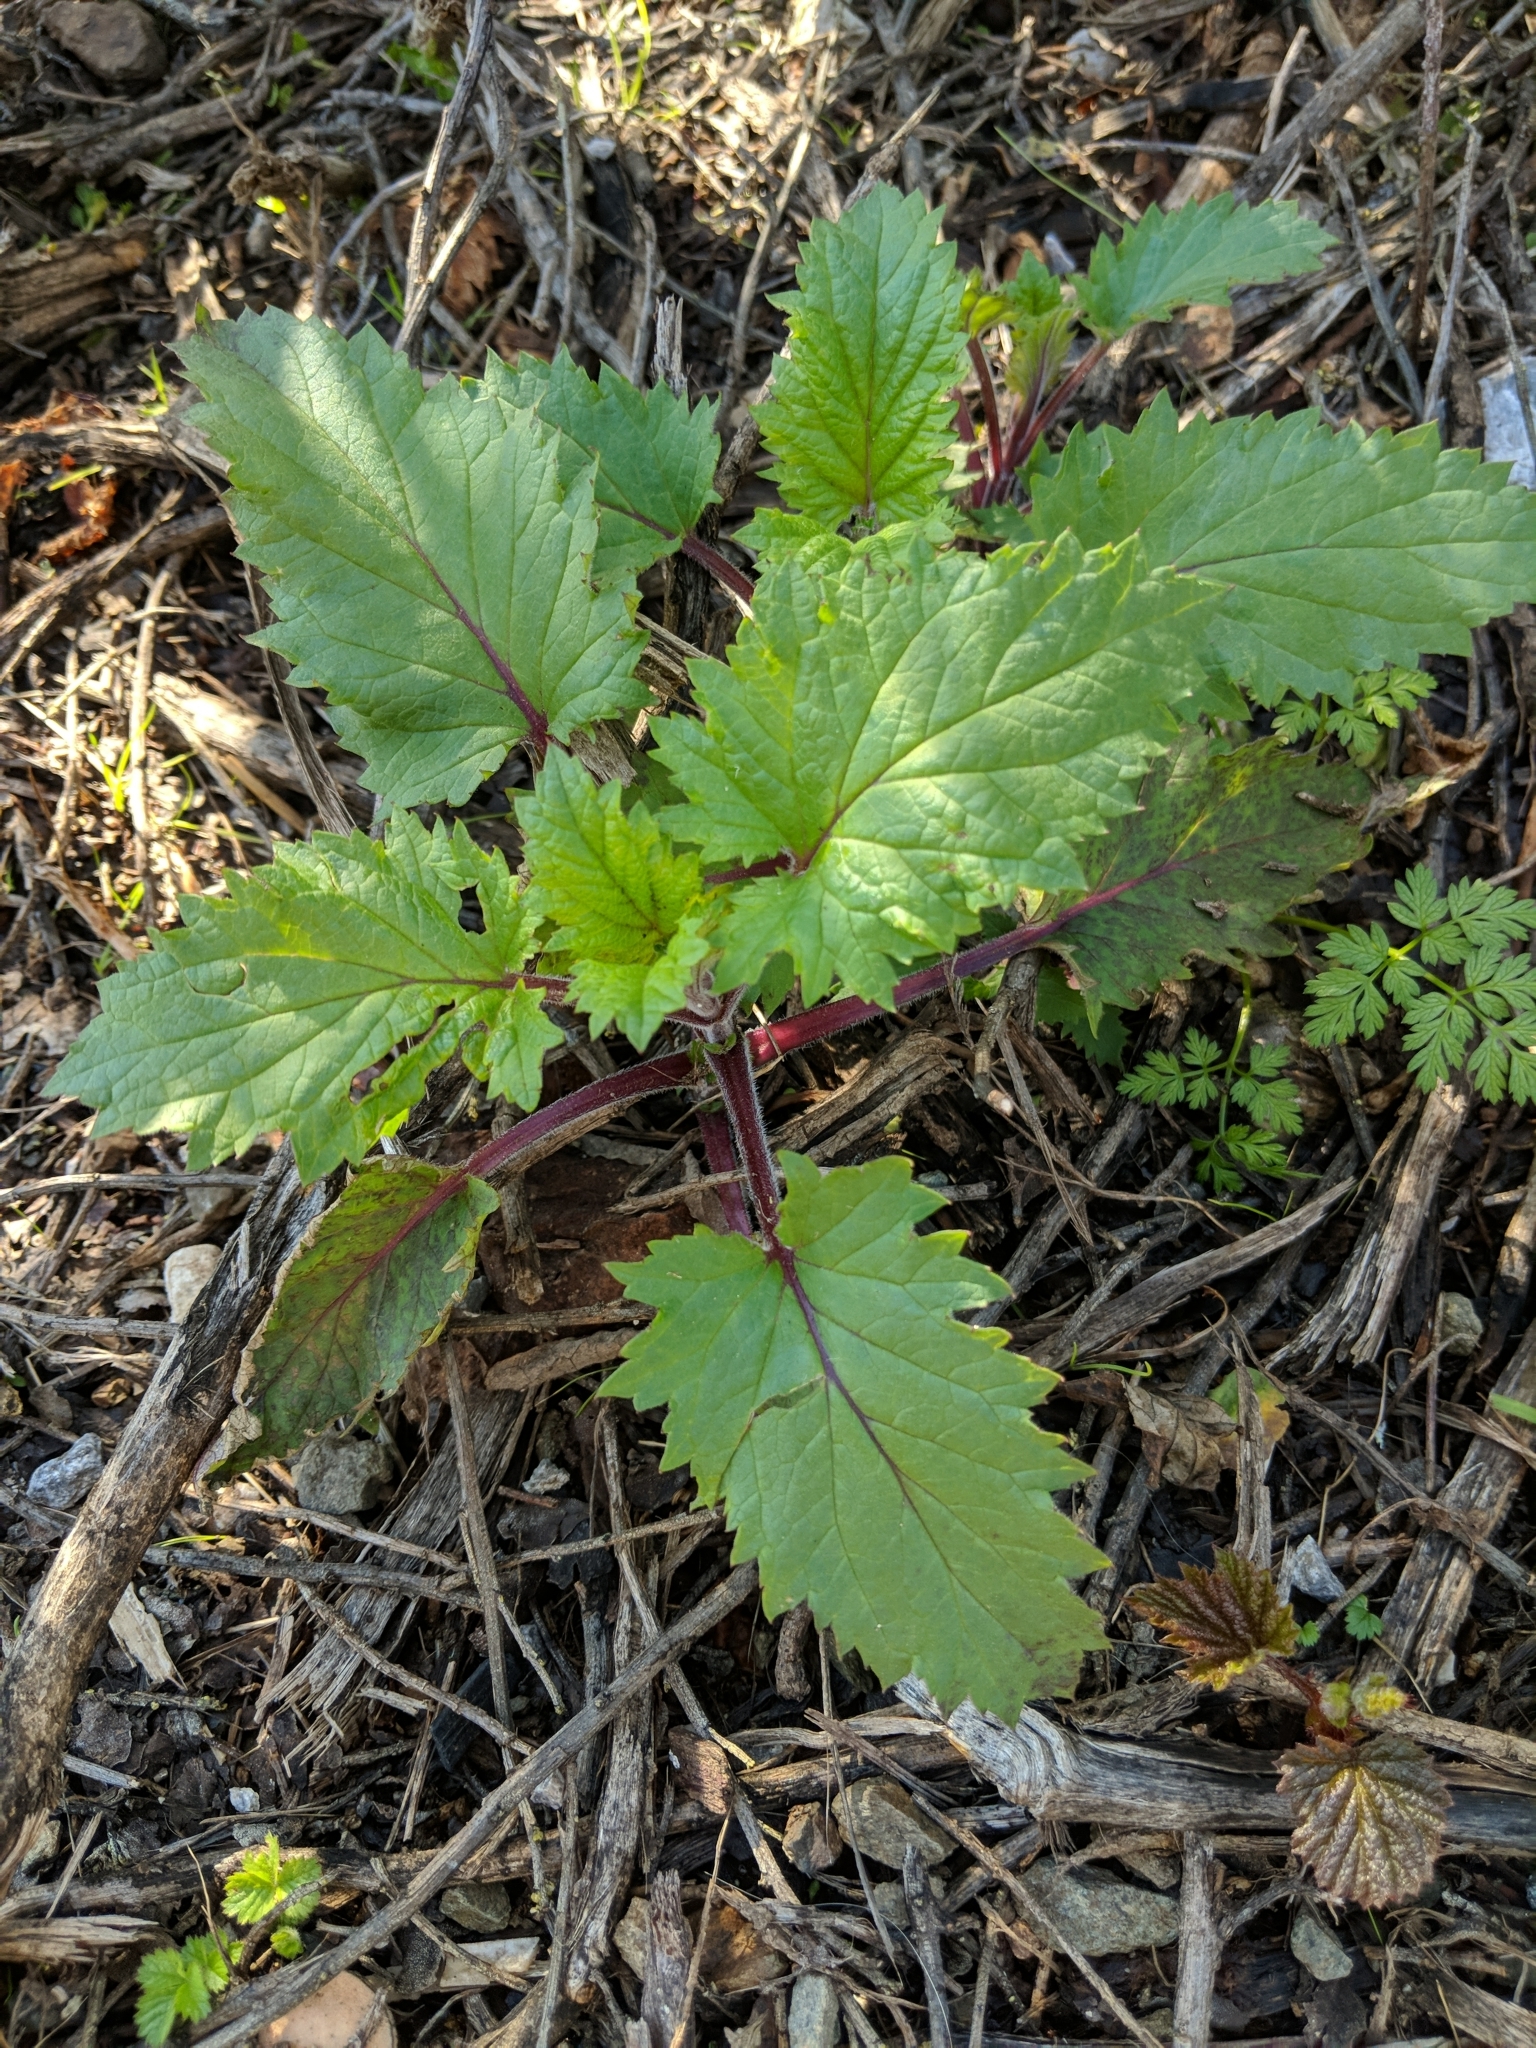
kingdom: Plantae
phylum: Tracheophyta
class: Magnoliopsida
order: Lamiales
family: Scrophulariaceae
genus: Scrophularia
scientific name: Scrophularia californica
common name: California figwort
